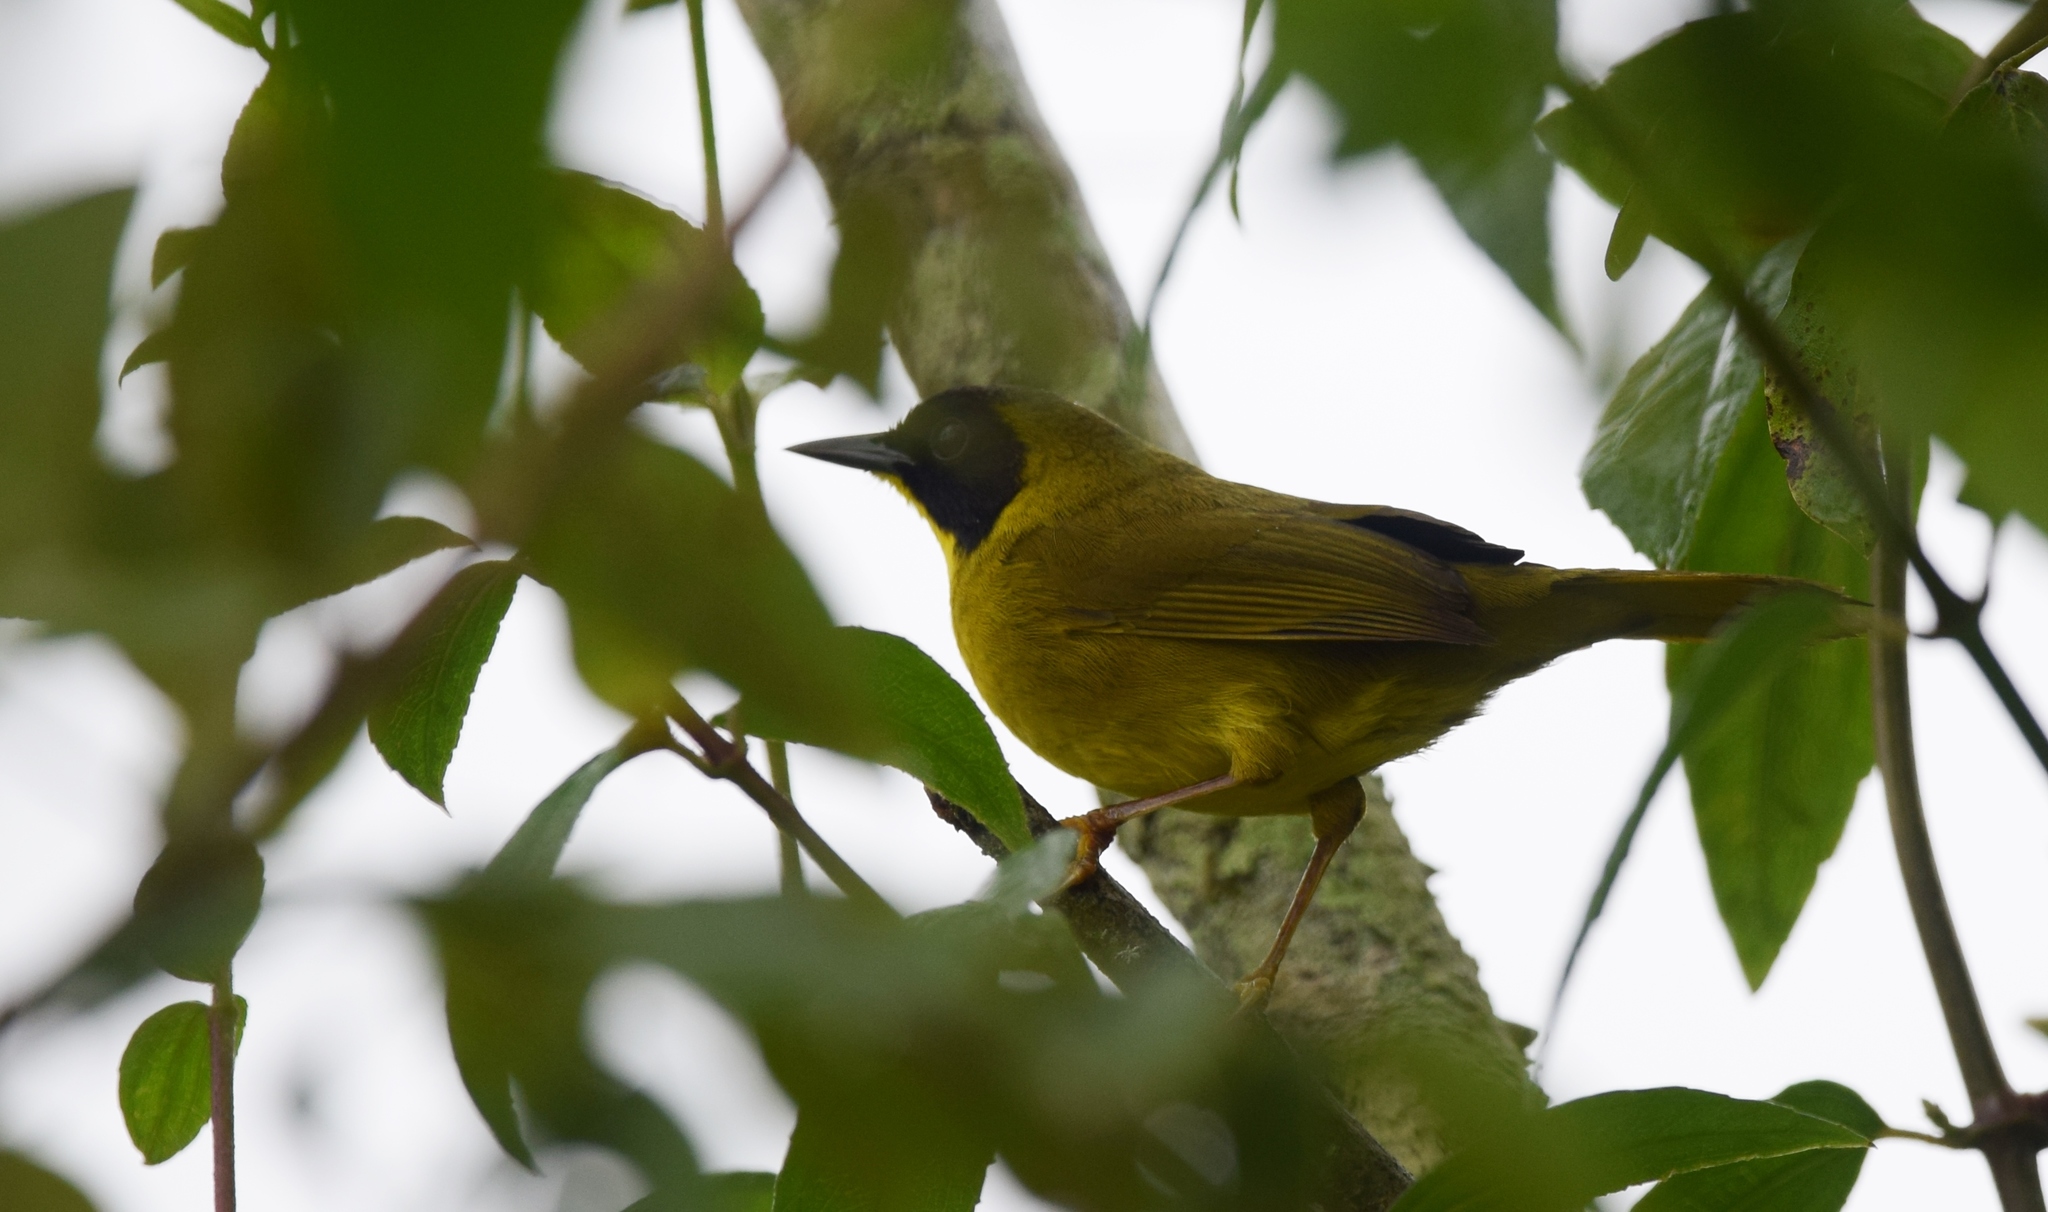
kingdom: Animalia
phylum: Chordata
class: Aves
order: Passeriformes
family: Parulidae
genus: Geothlypis
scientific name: Geothlypis semiflava
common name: Olive-crowned yellowthroat
